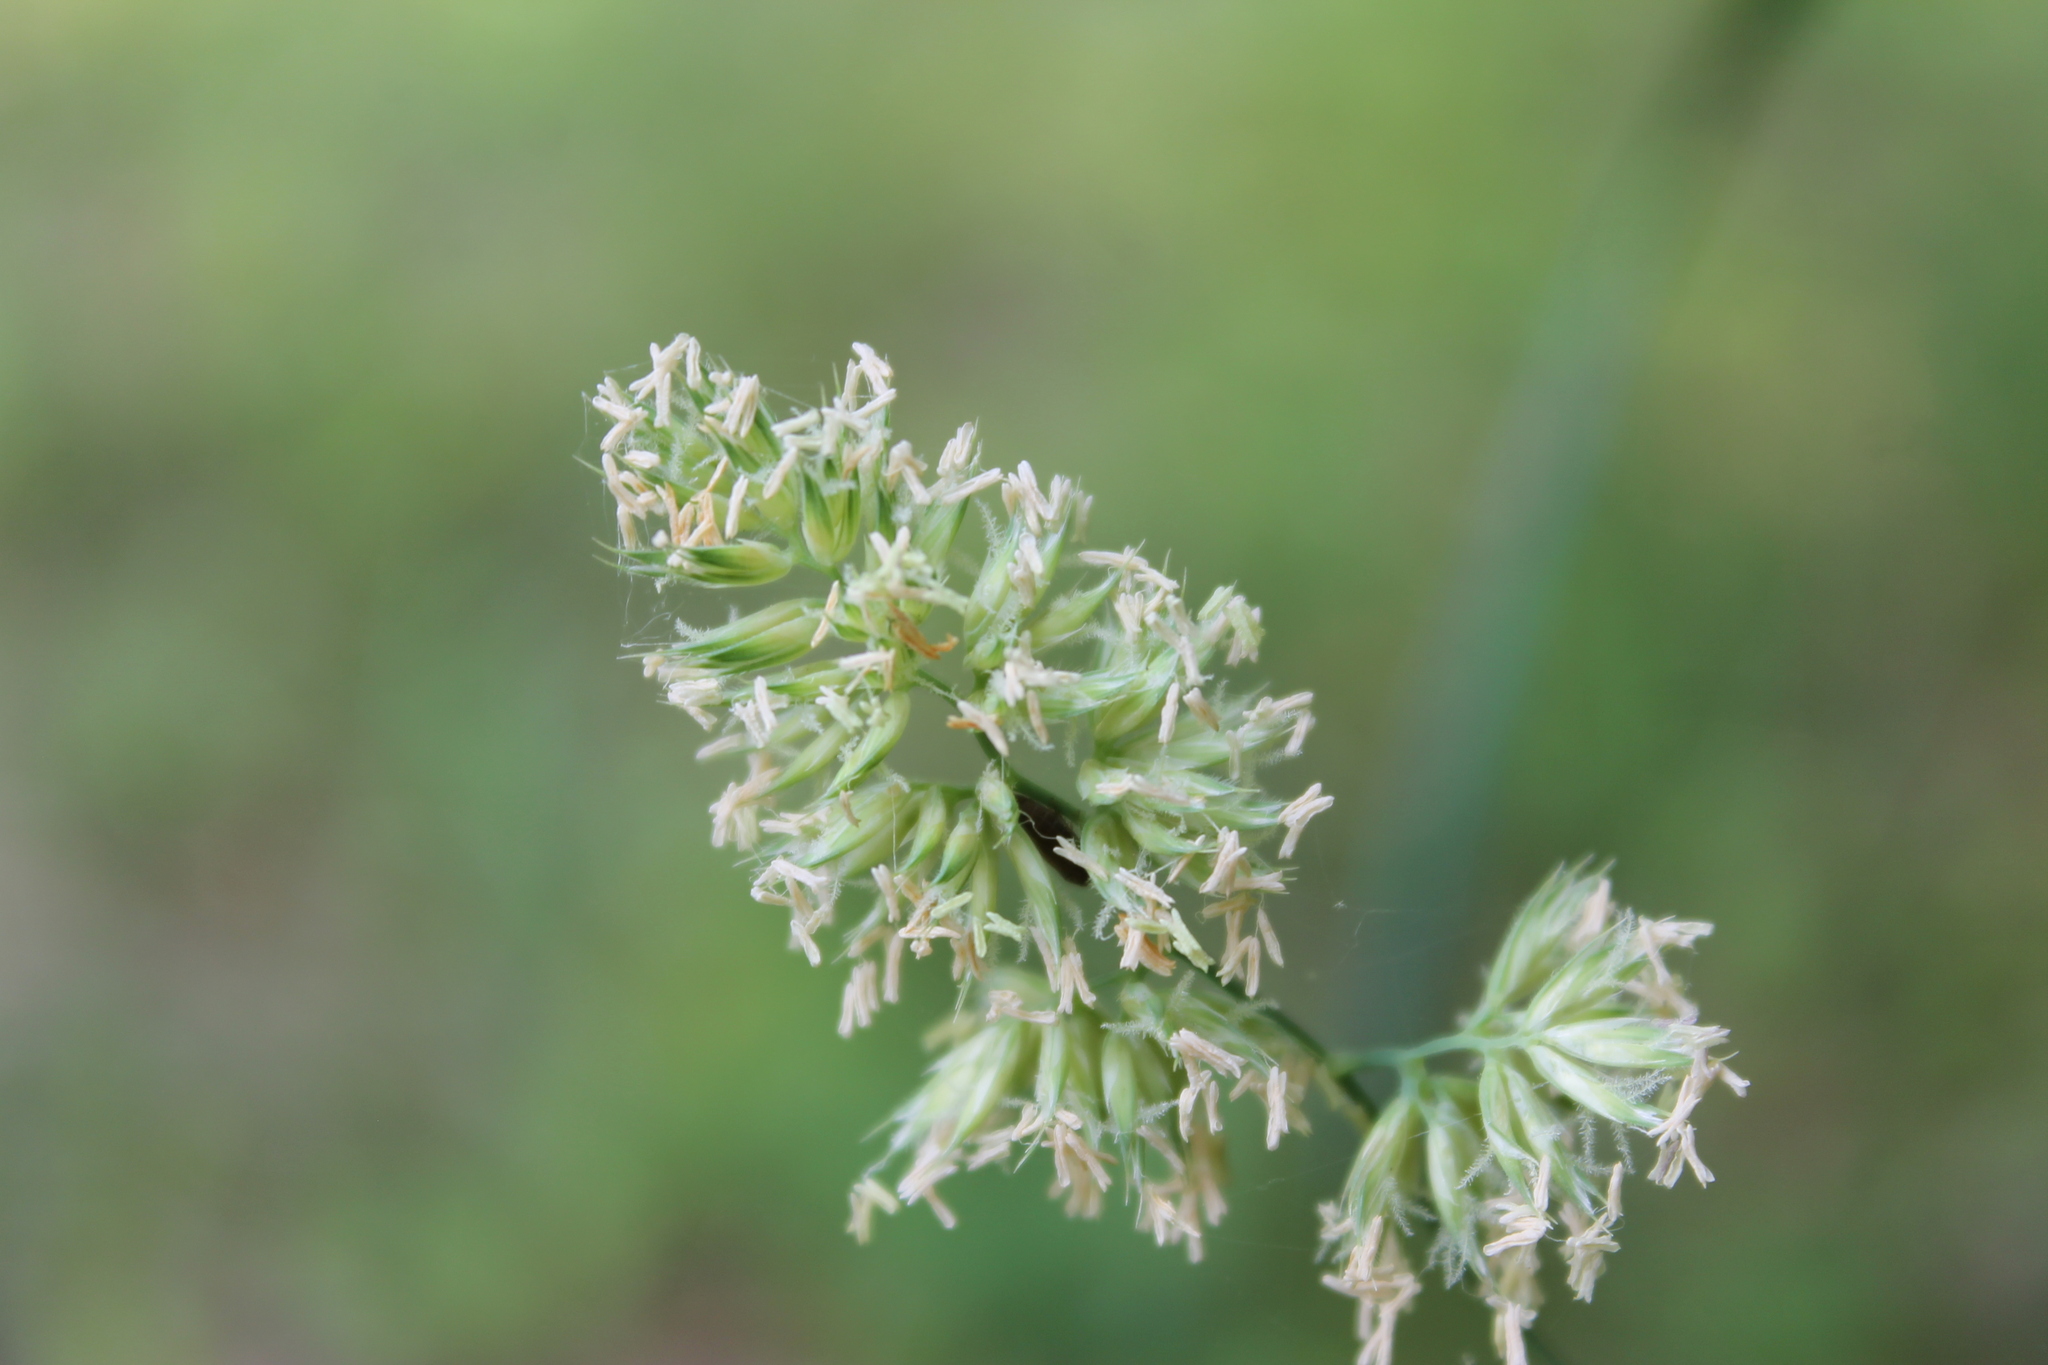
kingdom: Plantae
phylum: Tracheophyta
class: Liliopsida
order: Poales
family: Poaceae
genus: Dactylis
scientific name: Dactylis glomerata
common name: Orchardgrass
